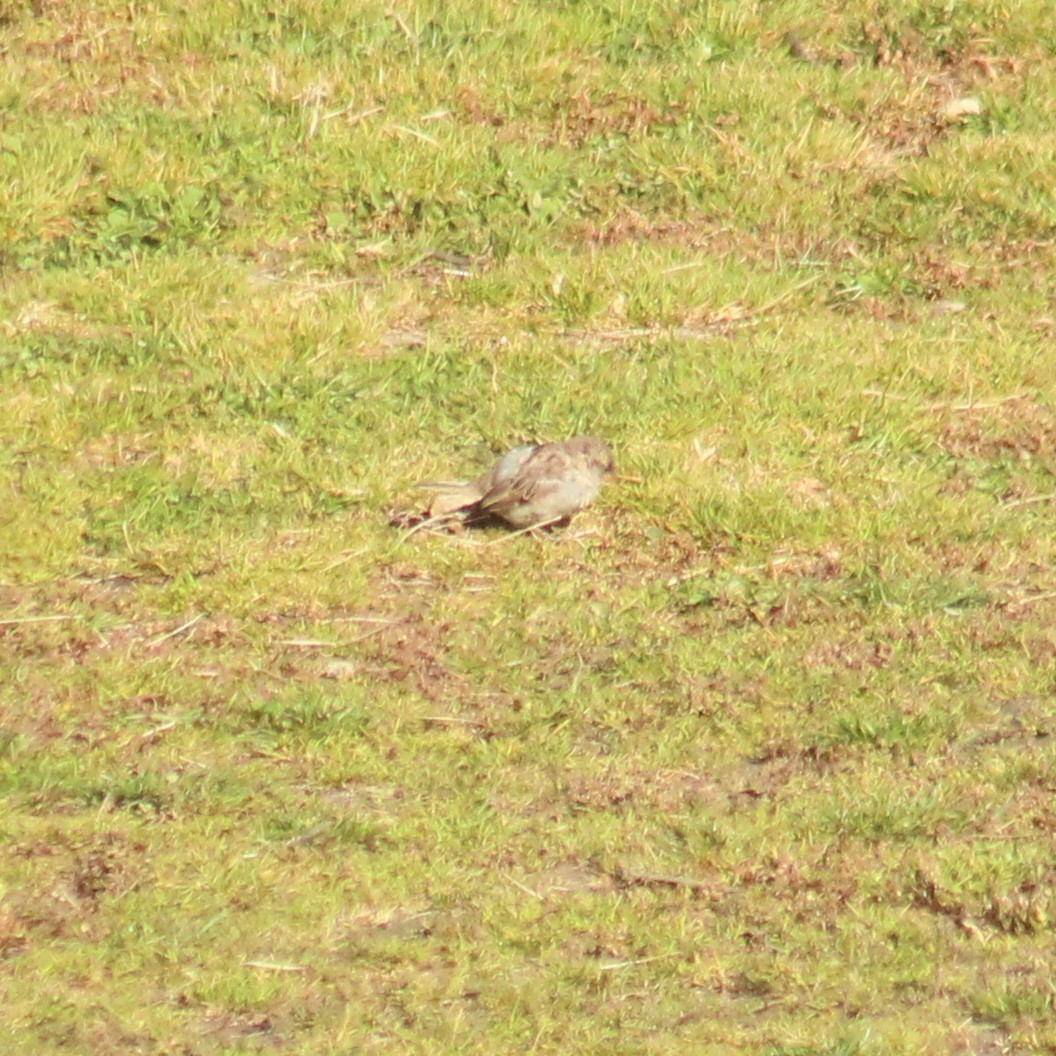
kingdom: Animalia
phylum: Chordata
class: Aves
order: Passeriformes
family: Passeridae
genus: Passer
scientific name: Passer domesticus
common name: House sparrow
